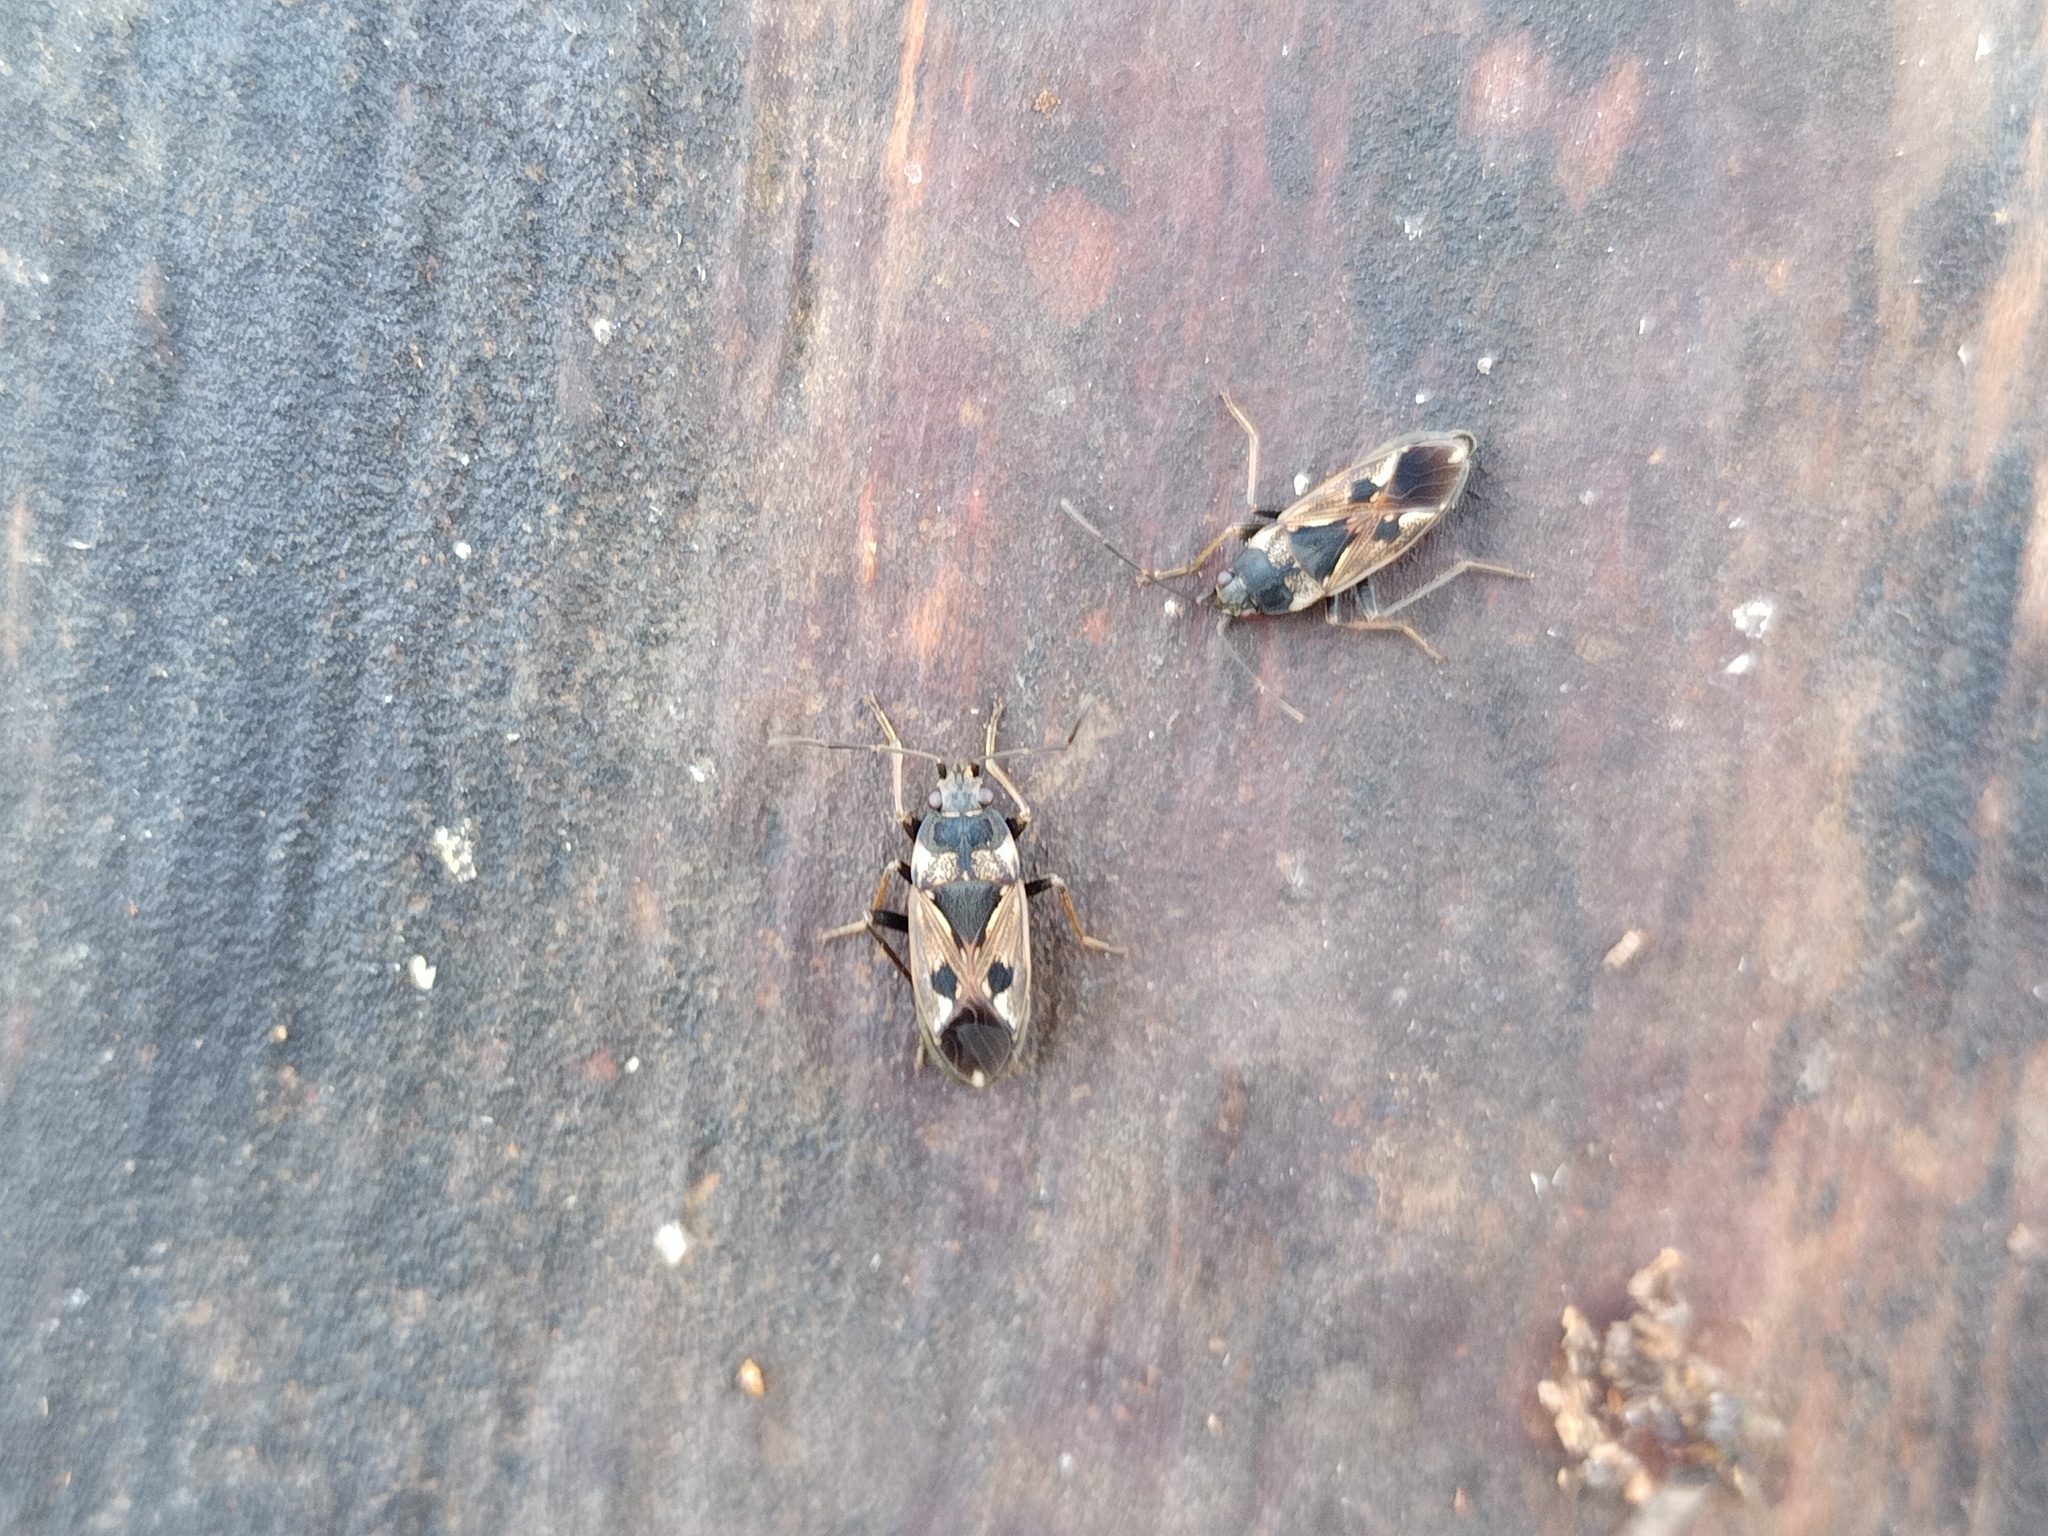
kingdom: Animalia
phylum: Arthropoda
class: Insecta
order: Hemiptera
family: Rhyparochromidae
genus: Rhyparochromus
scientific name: Rhyparochromus vulgaris
